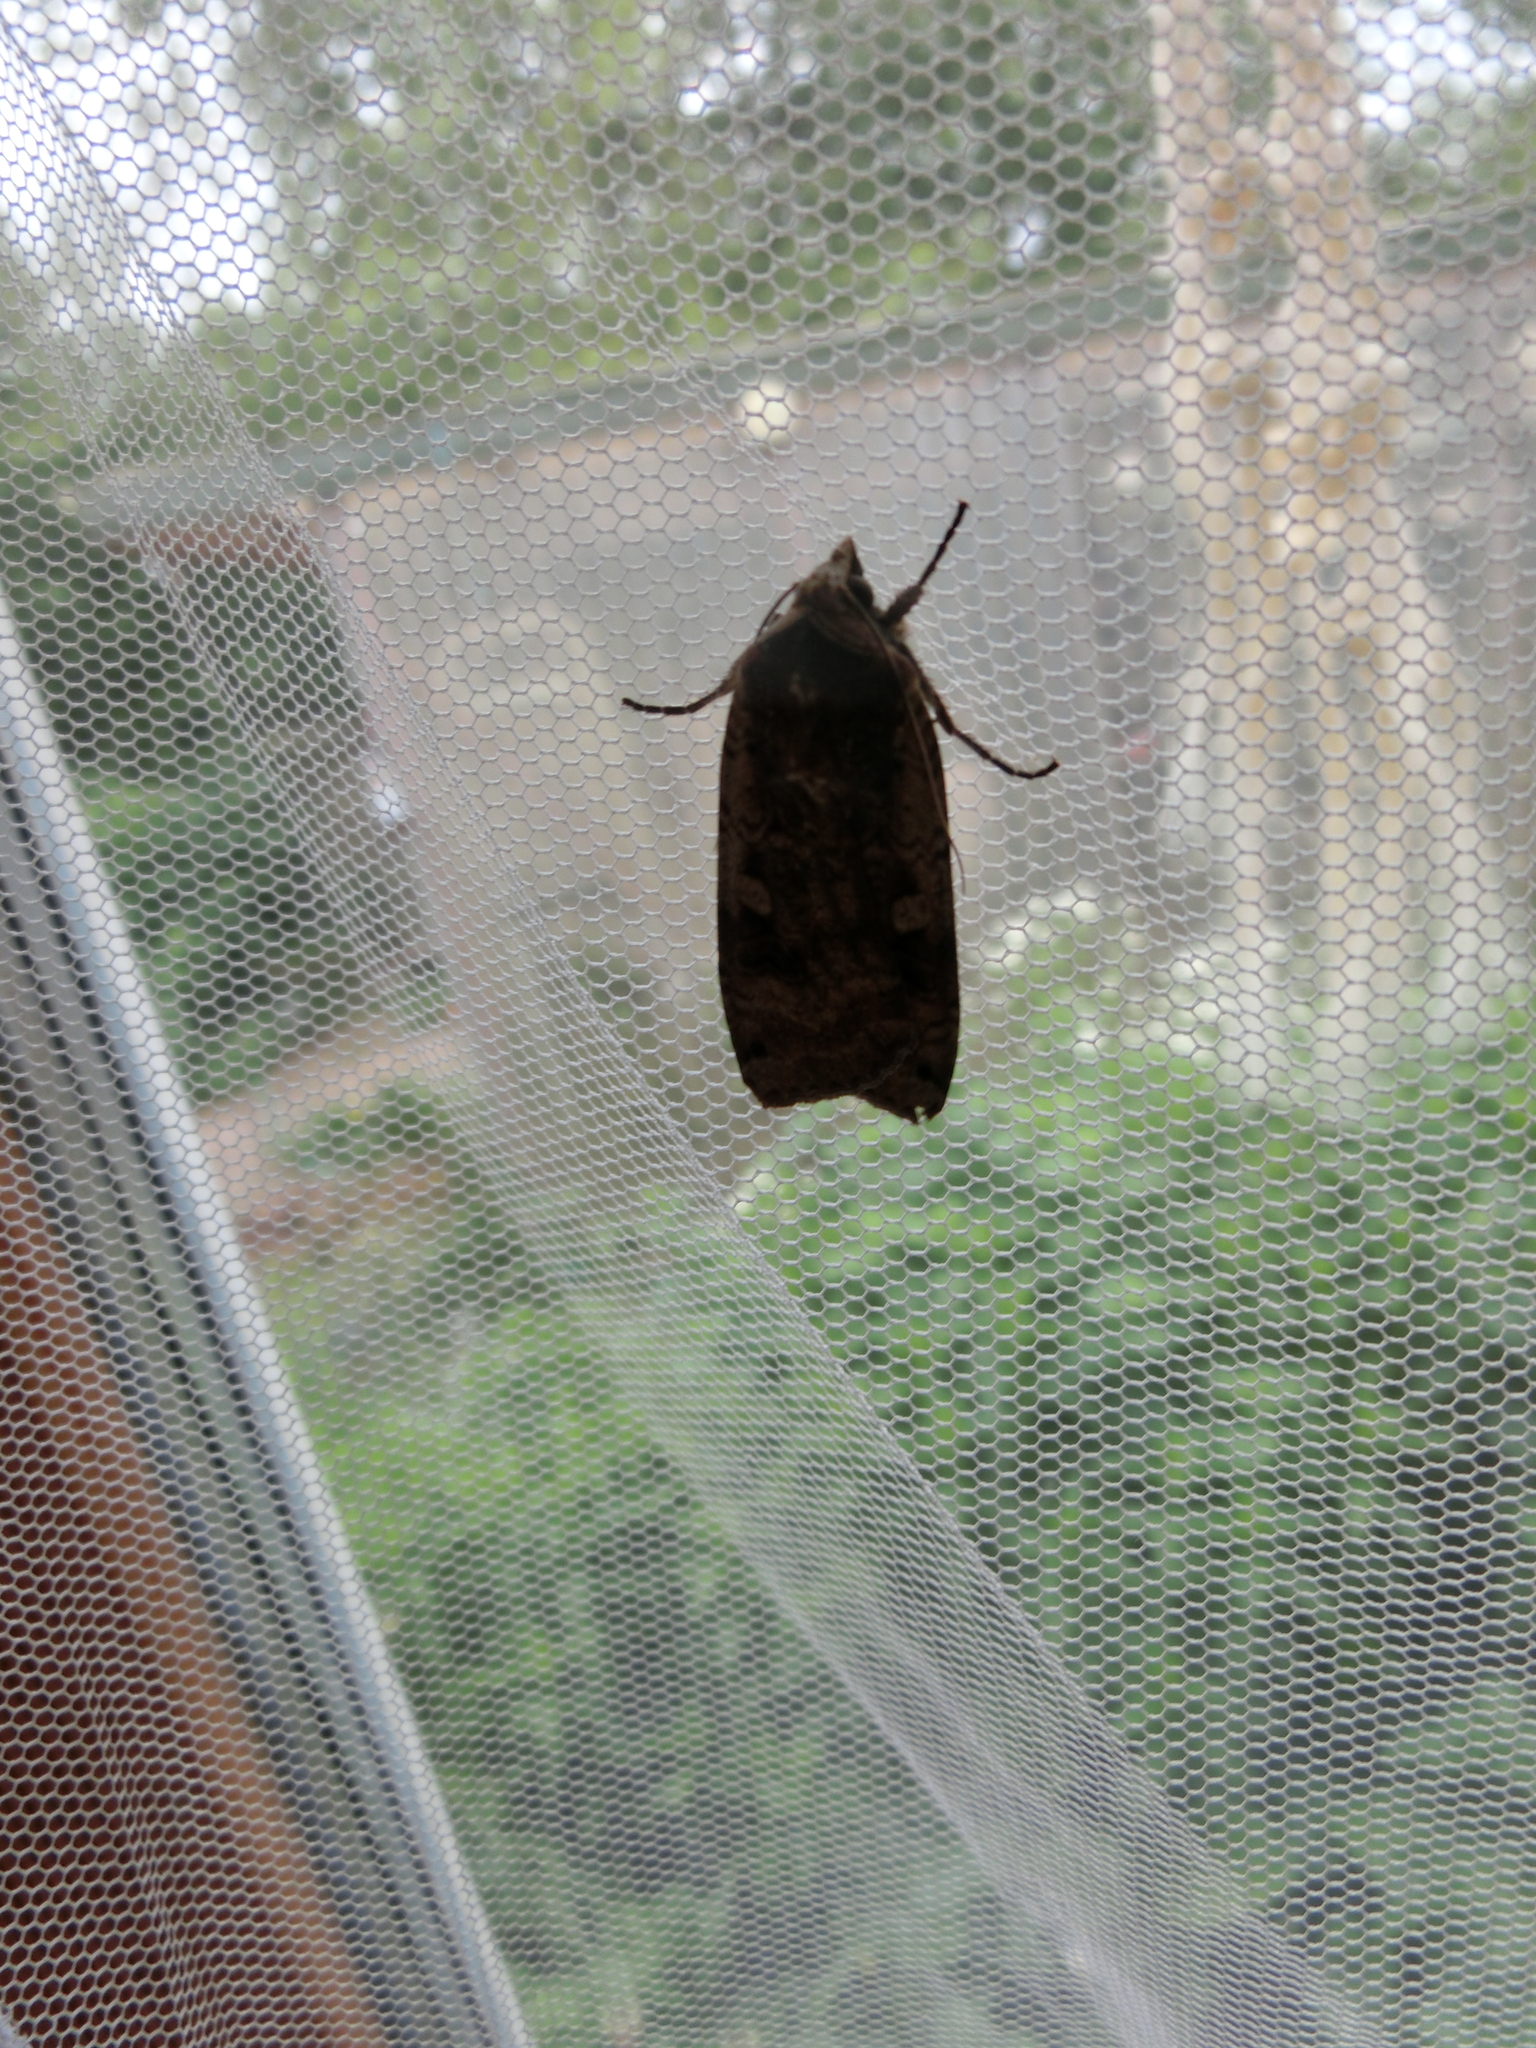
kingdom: Animalia
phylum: Arthropoda
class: Insecta
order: Lepidoptera
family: Noctuidae
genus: Noctua
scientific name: Noctua pronuba
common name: Large yellow underwing
